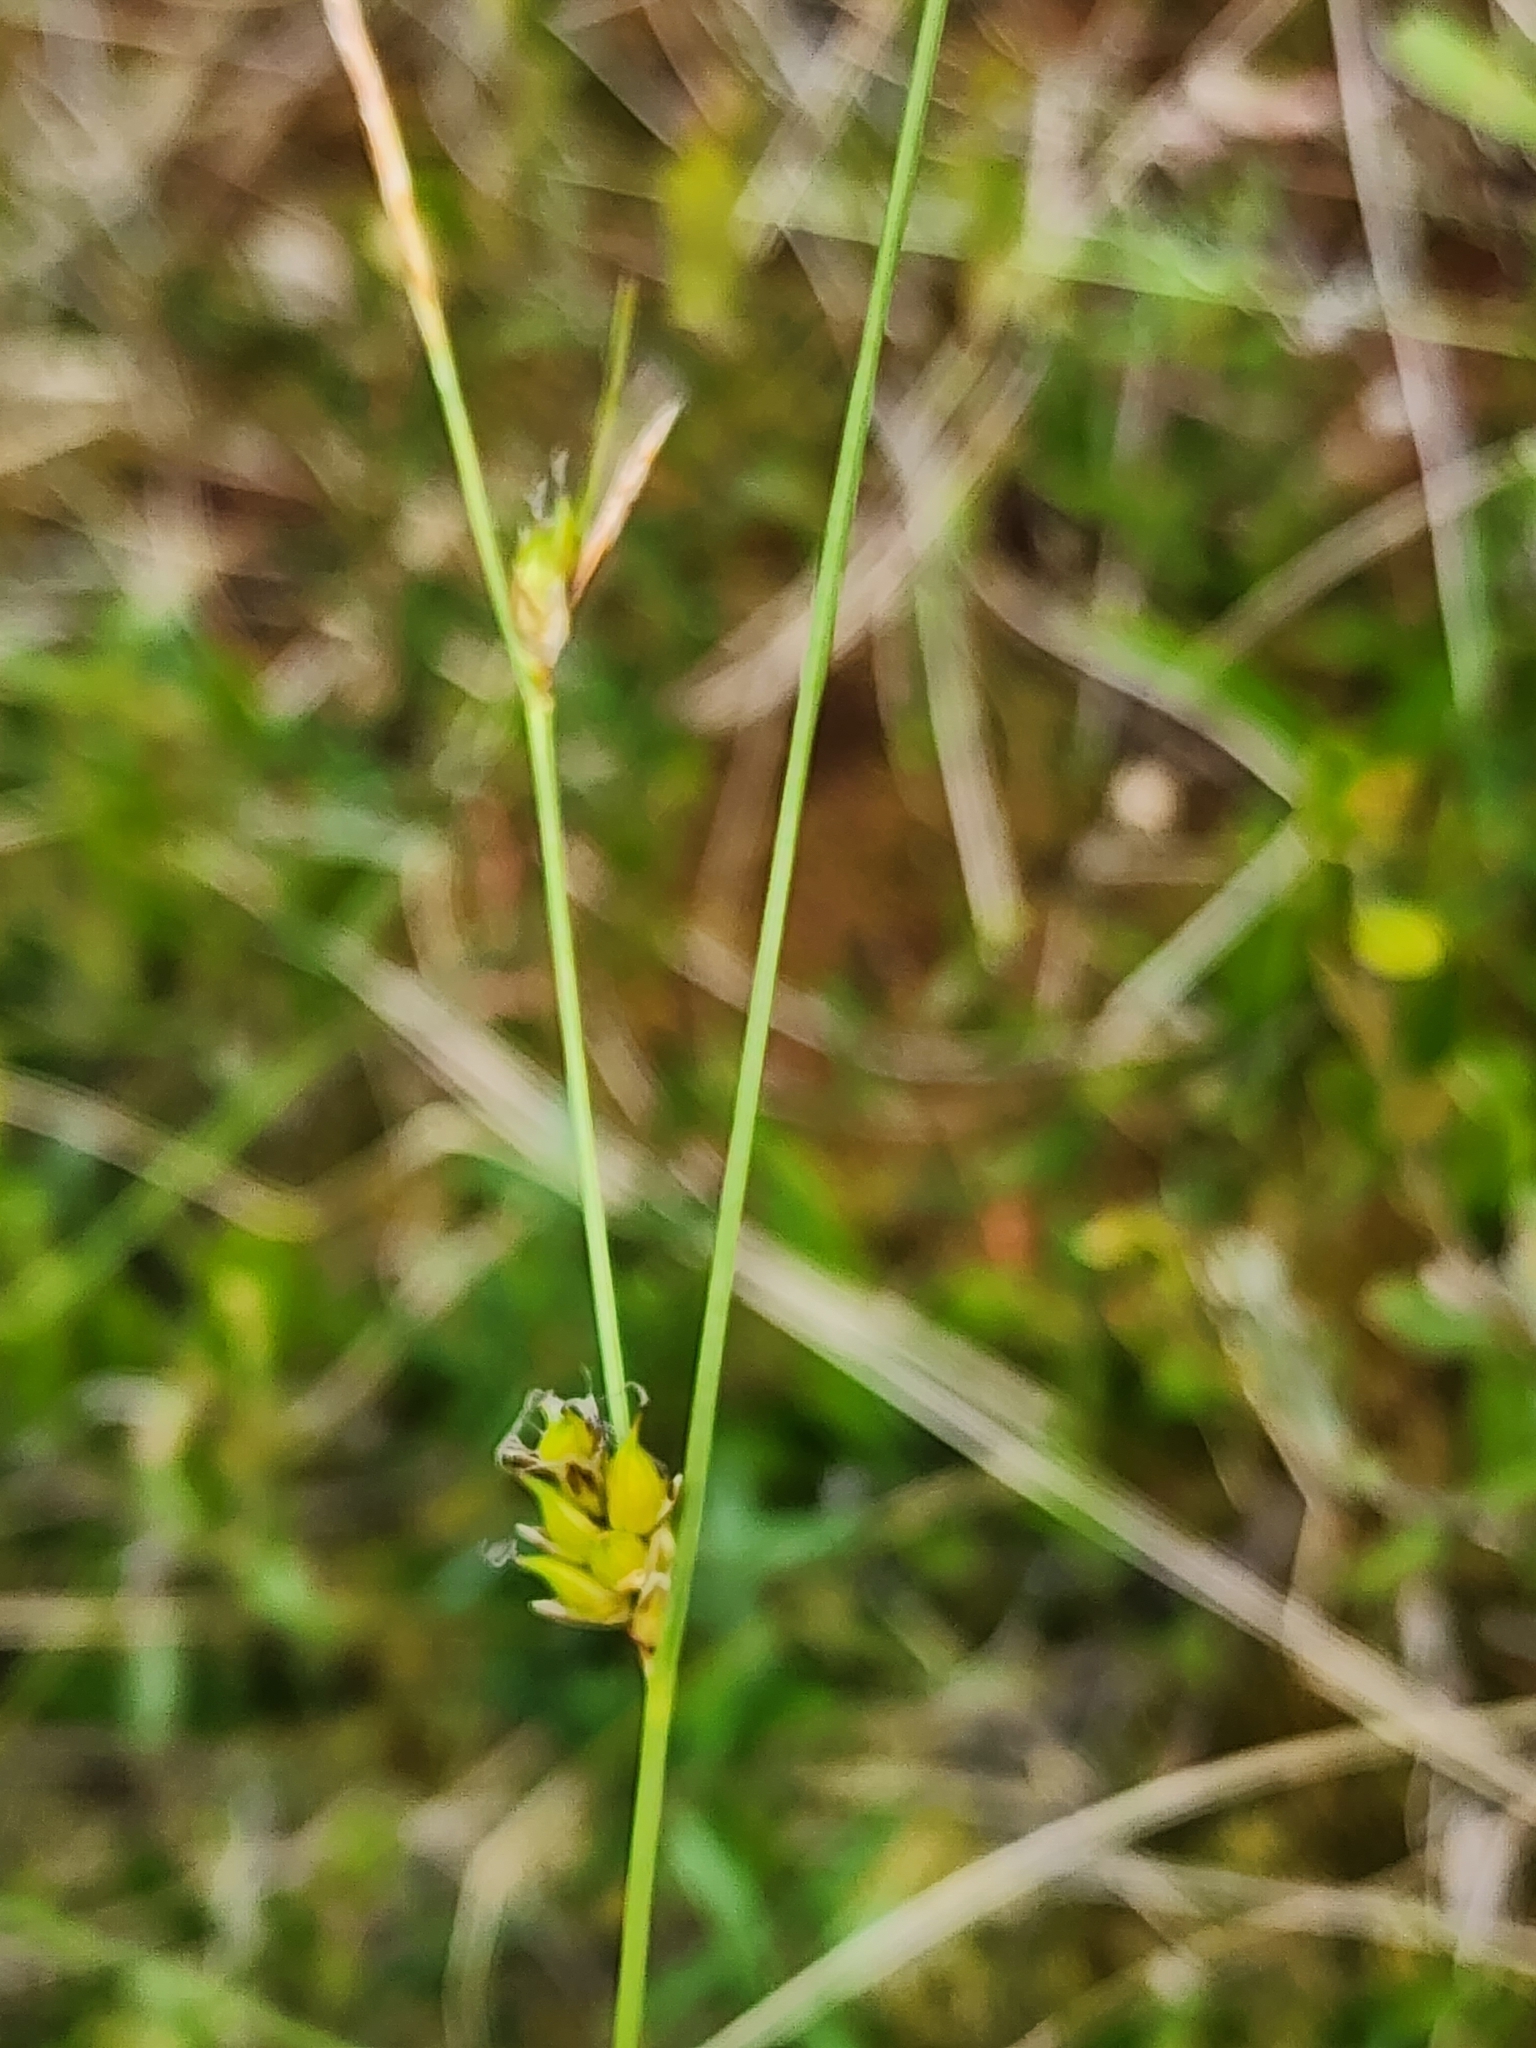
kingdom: Plantae
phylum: Tracheophyta
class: Liliopsida
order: Poales
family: Cyperaceae
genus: Carex
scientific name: Carex oligosperma
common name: Few-seed sedge
